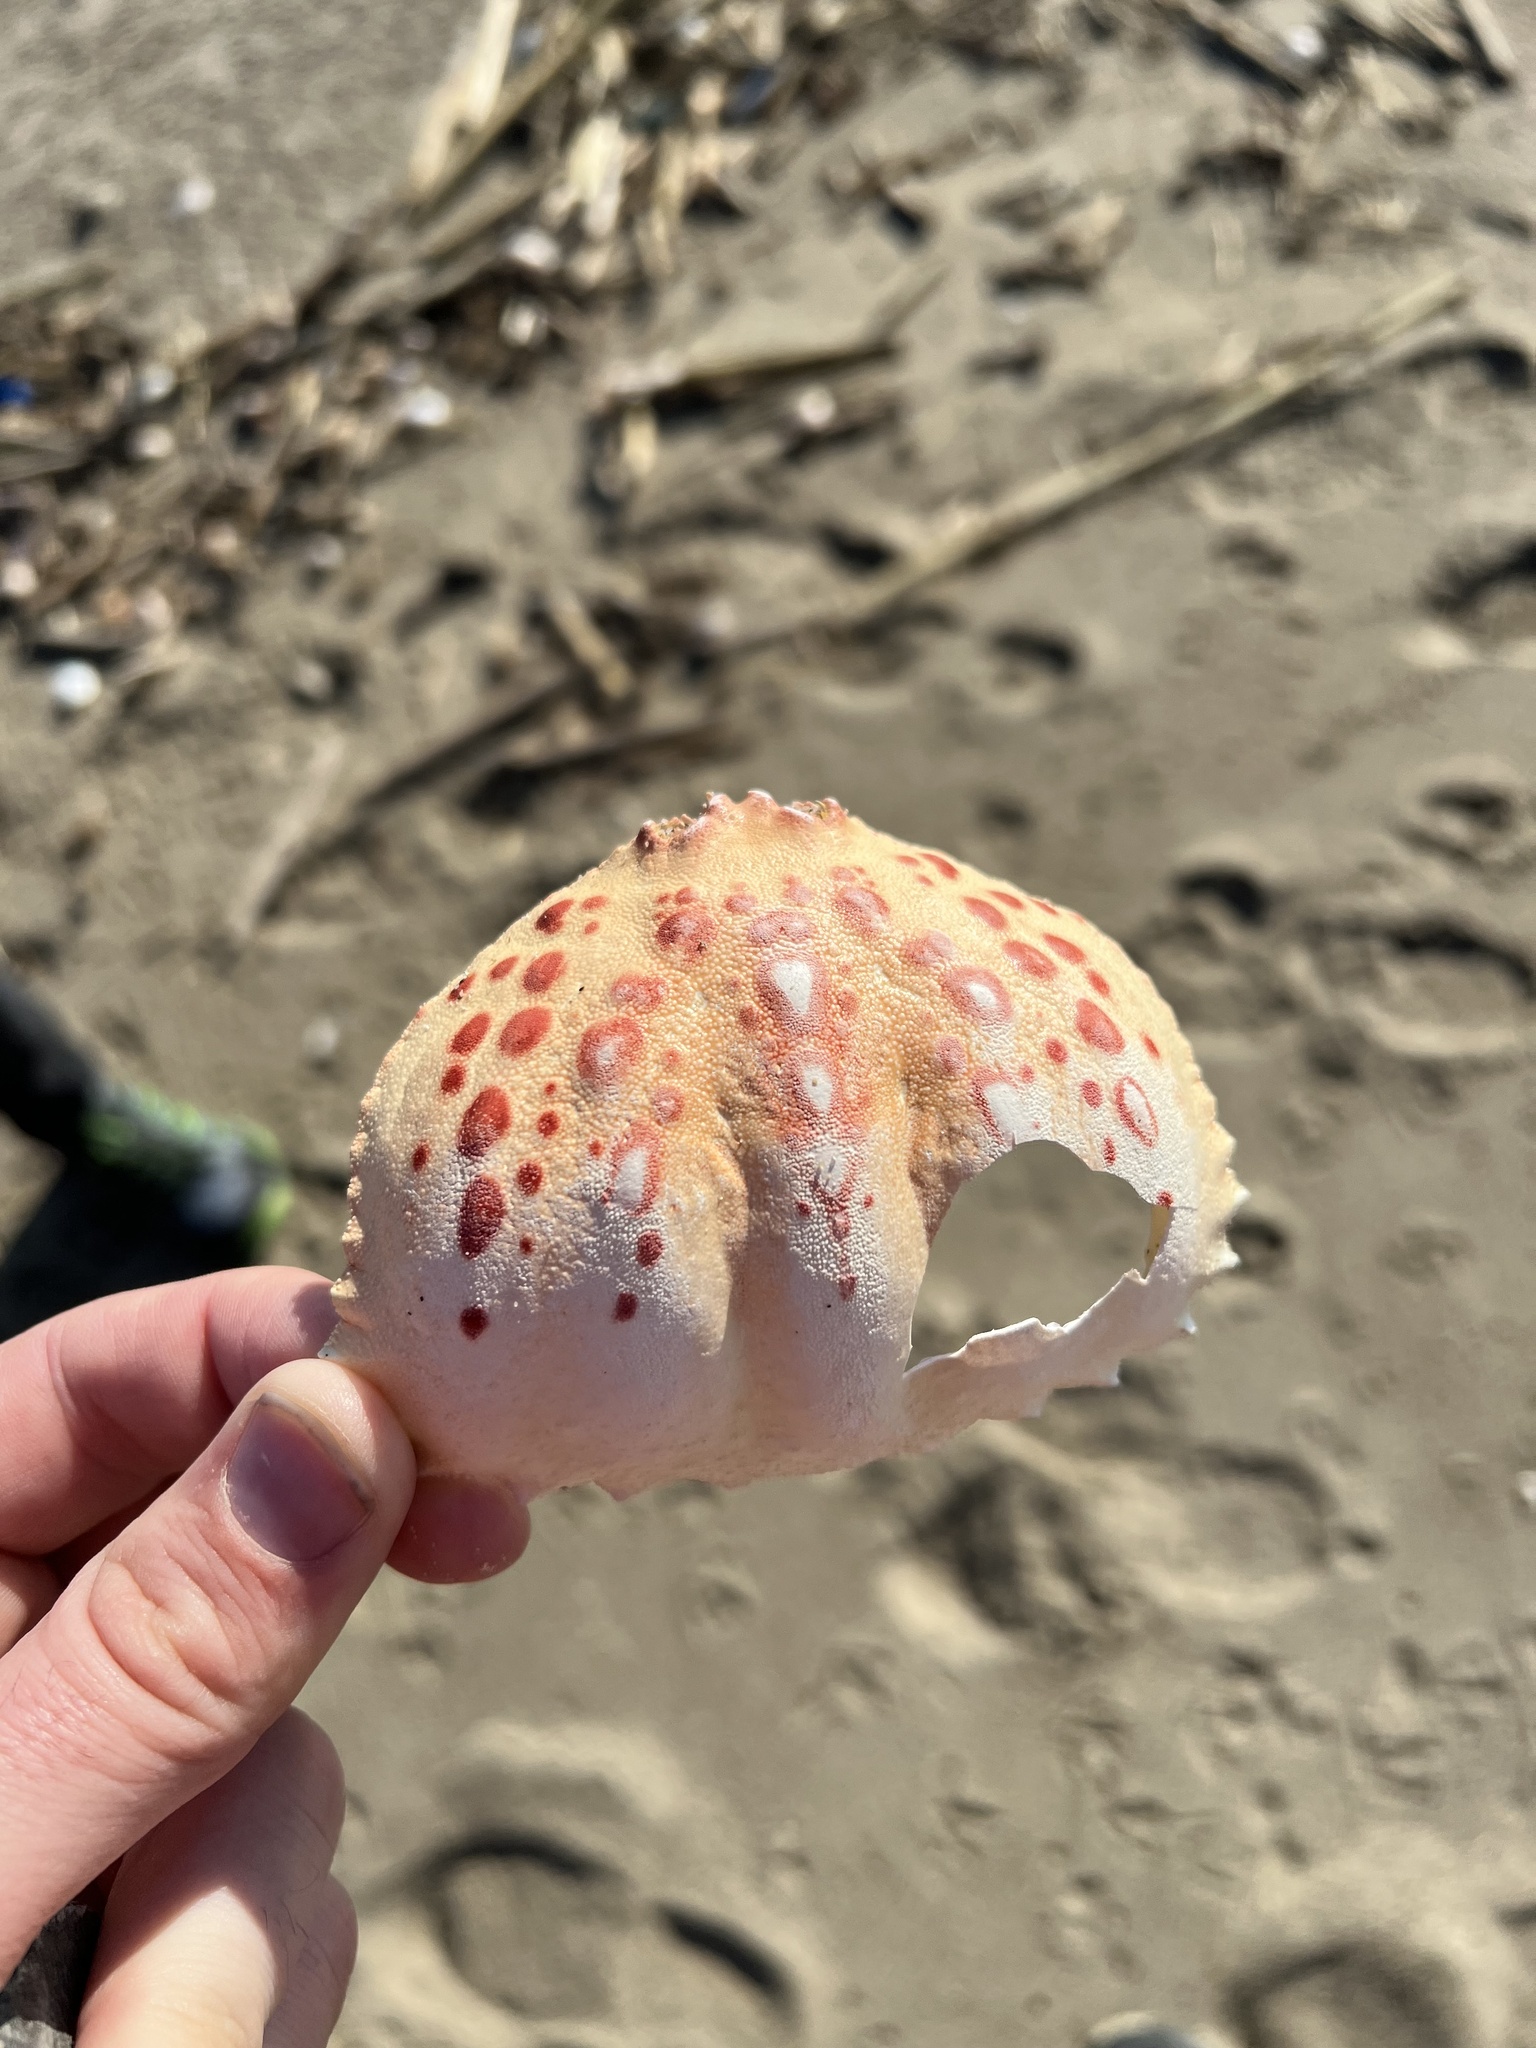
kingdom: Animalia
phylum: Arthropoda
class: Malacostraca
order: Decapoda
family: Calappidae
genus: Calappa
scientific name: Calappa granulata
